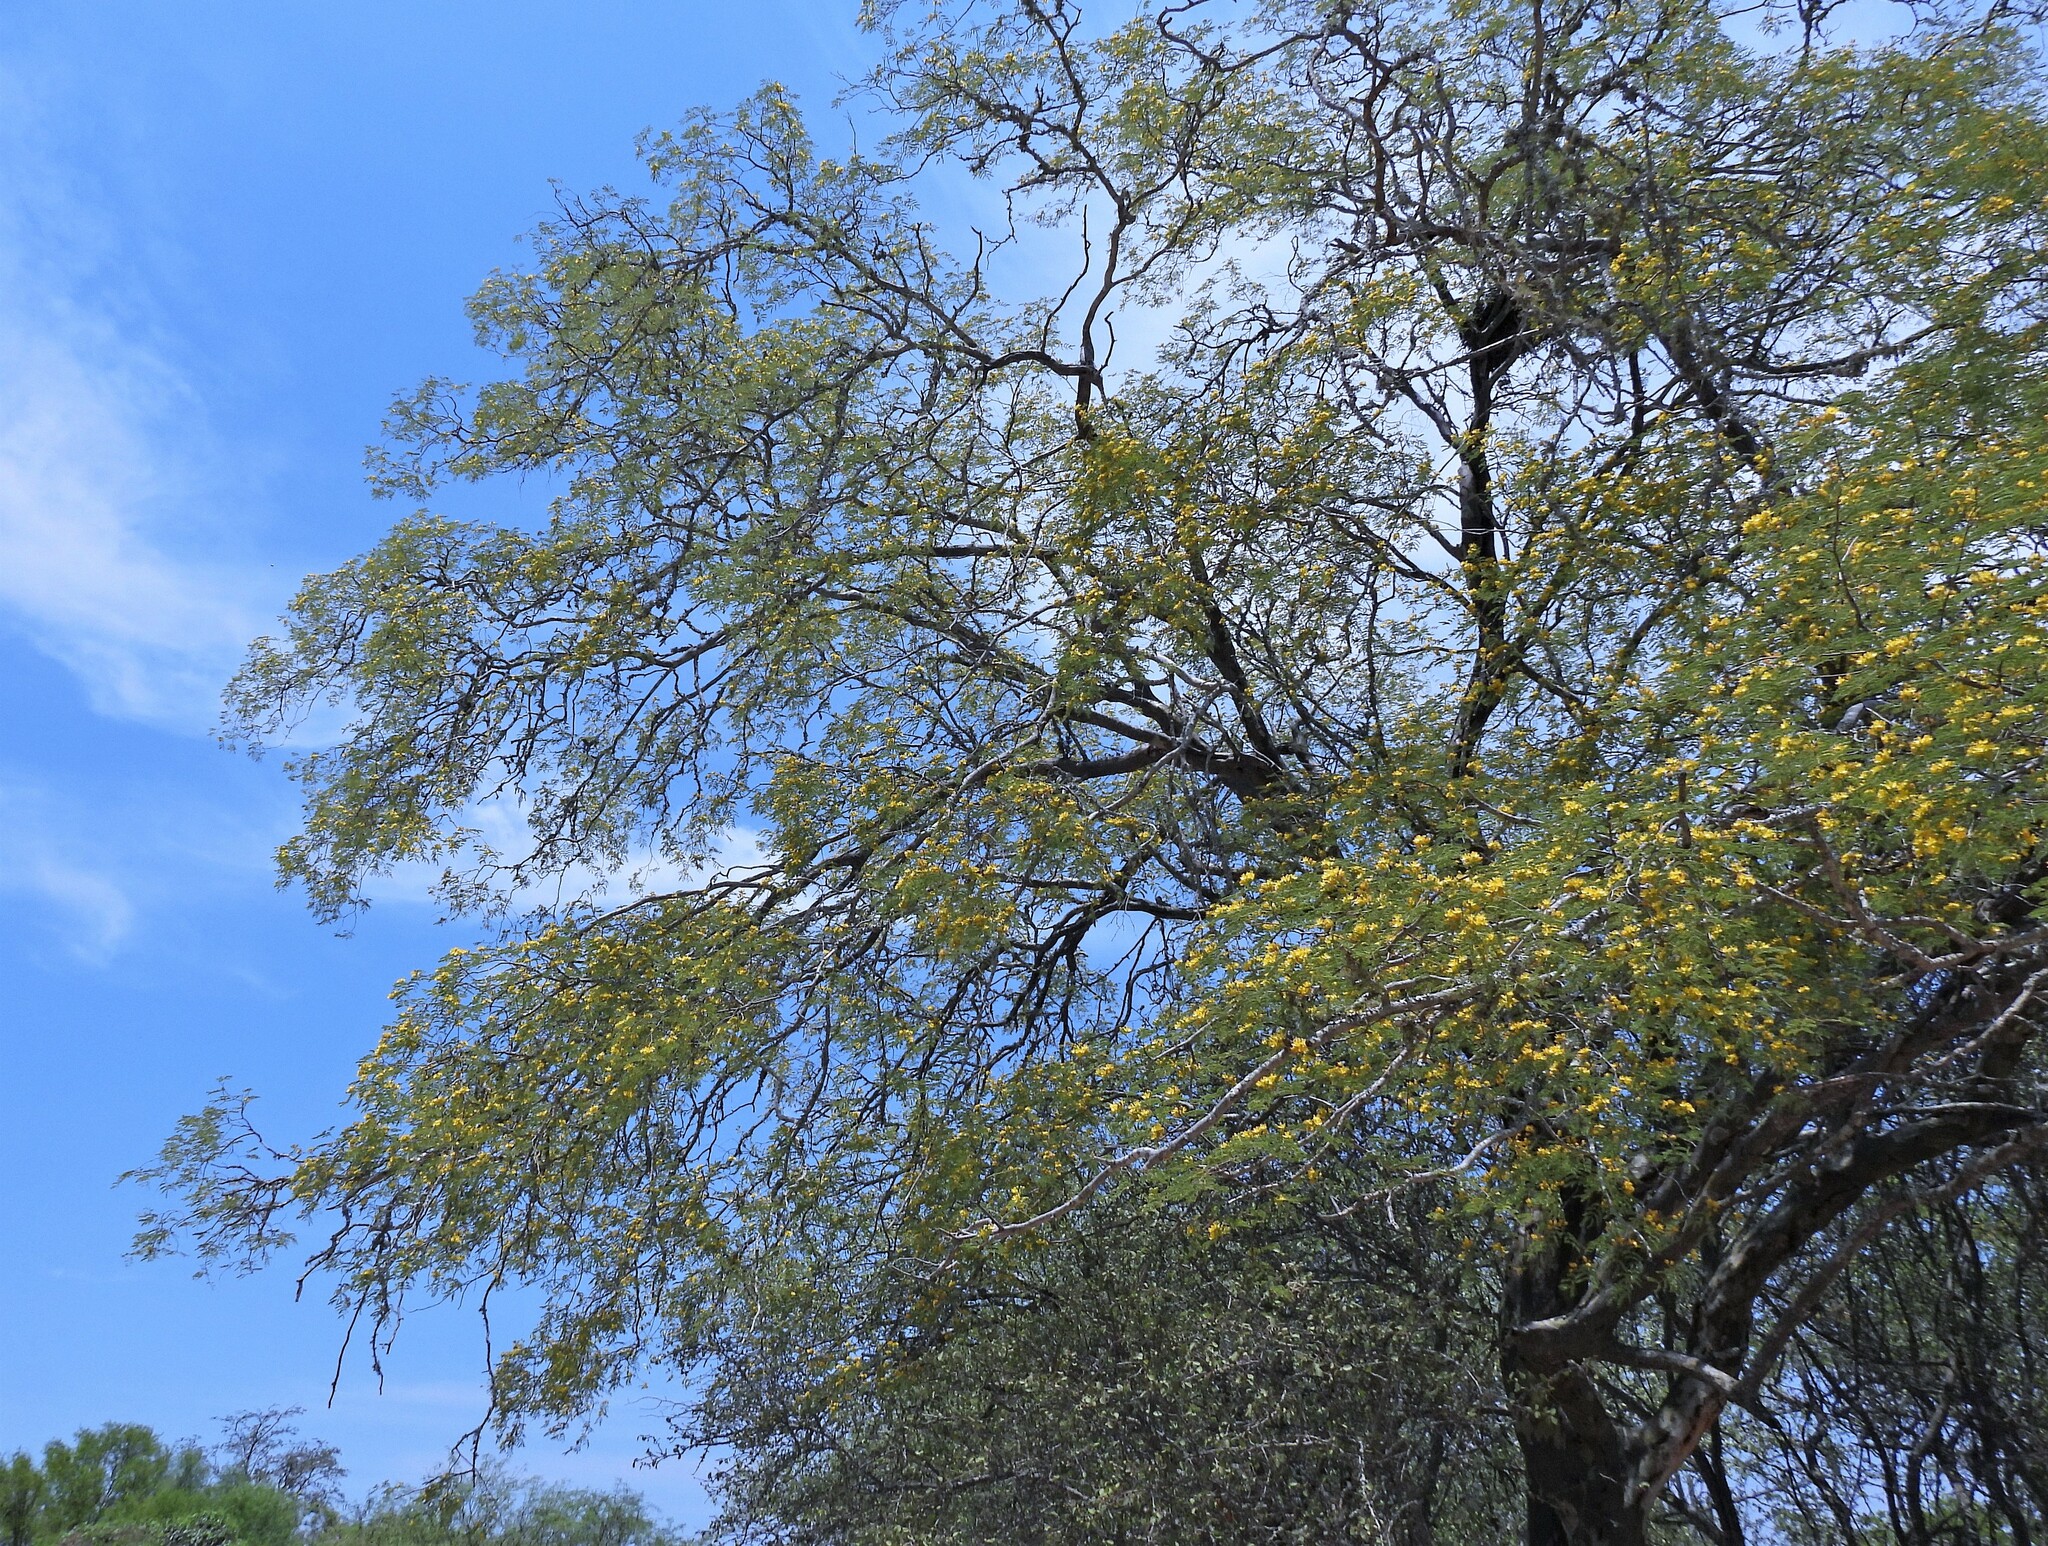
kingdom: Plantae
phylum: Tracheophyta
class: Magnoliopsida
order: Fabales
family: Fabaceae
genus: Libidibia
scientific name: Libidibia paraguariensis
